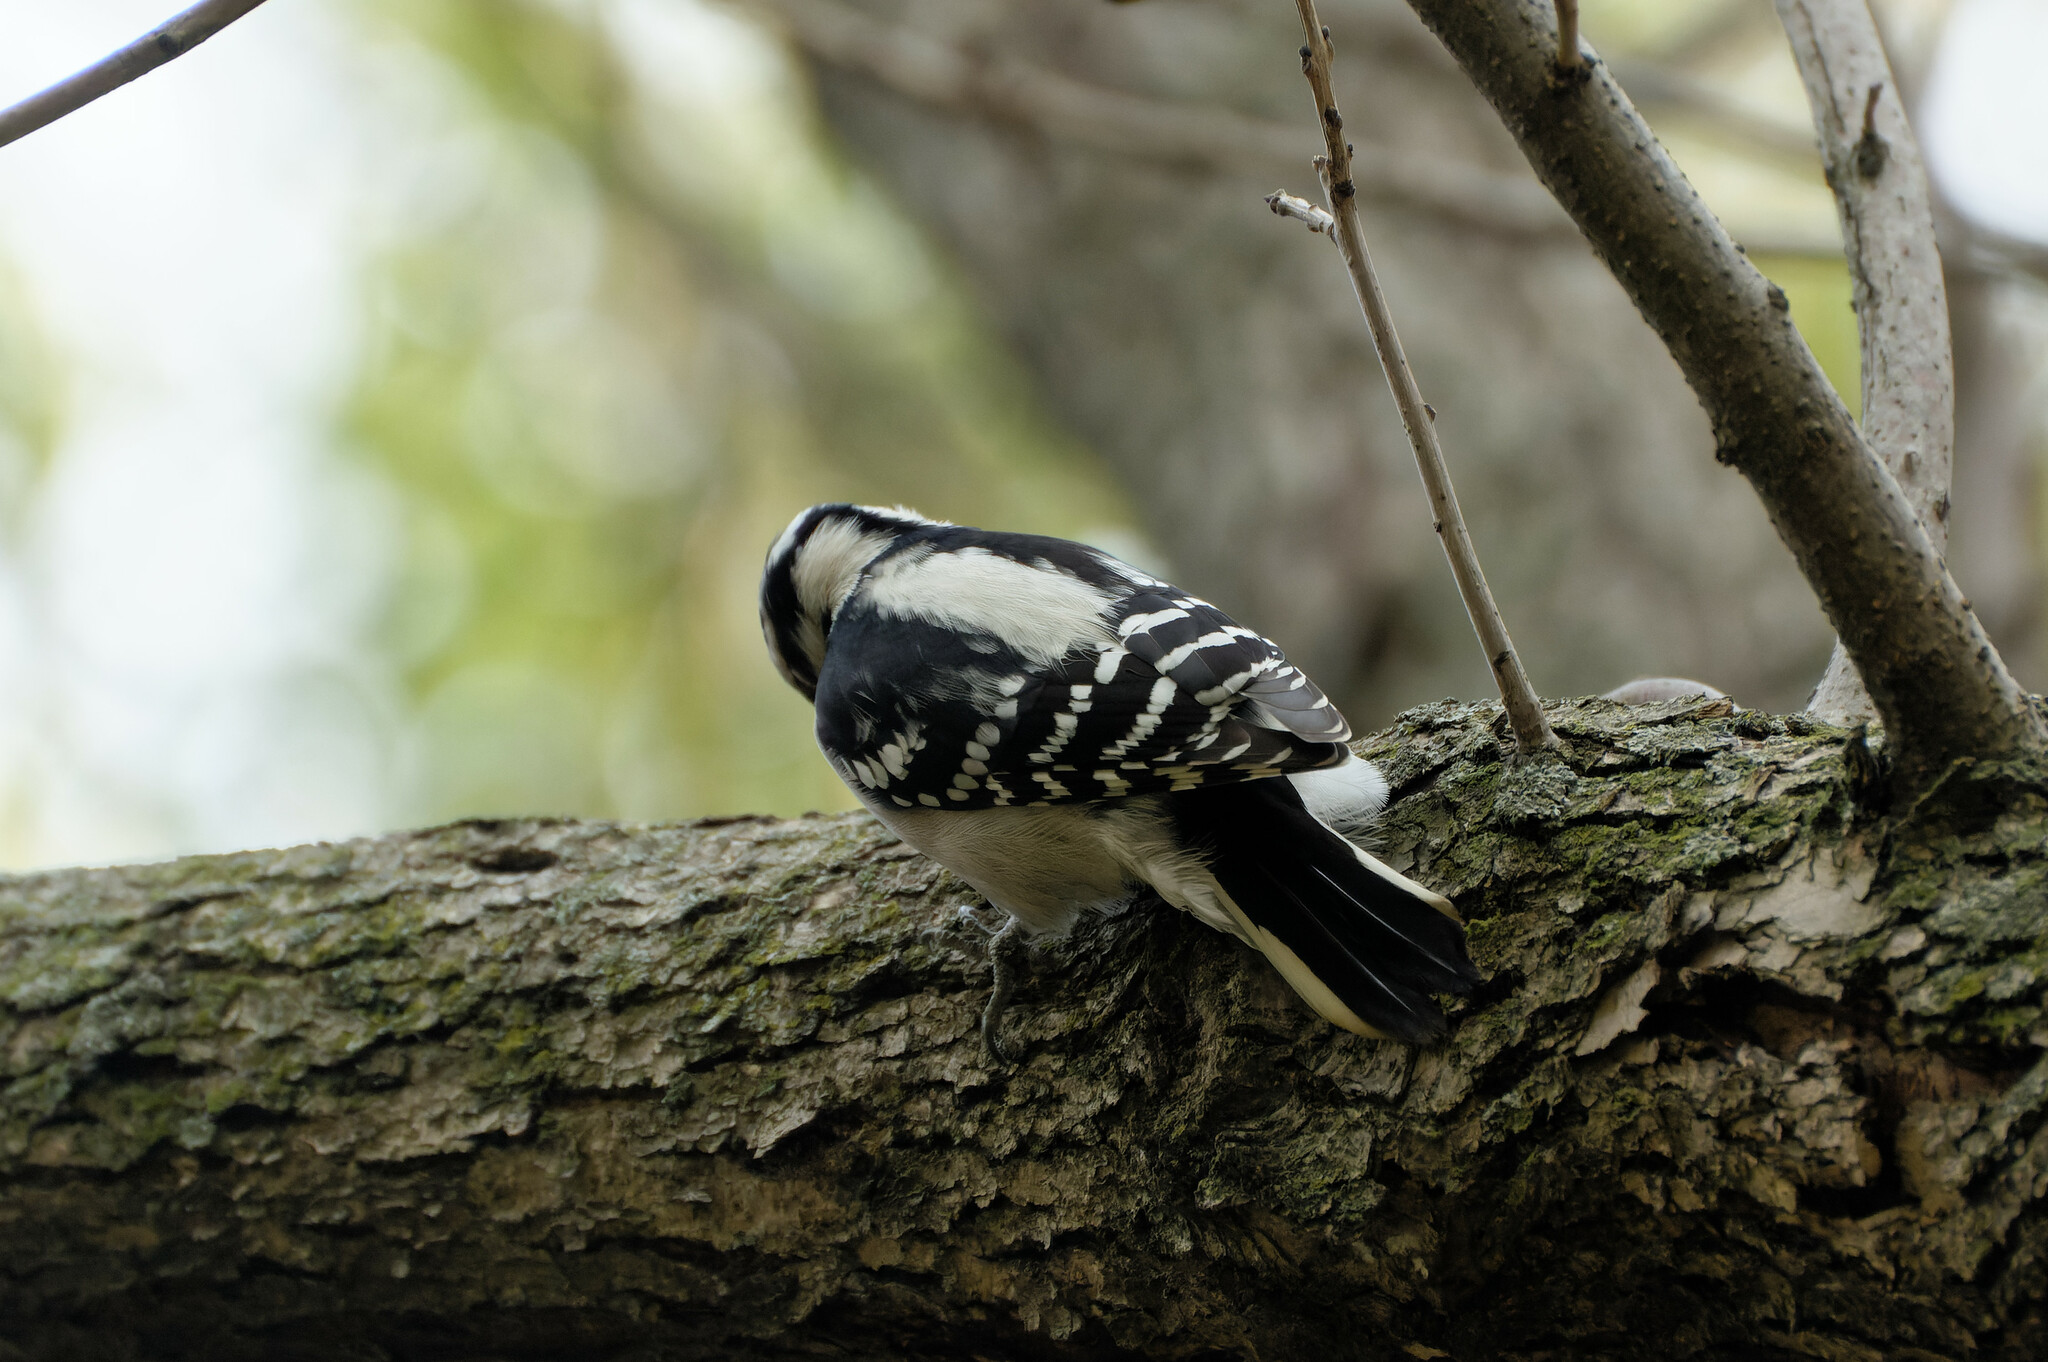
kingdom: Animalia
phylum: Chordata
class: Aves
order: Piciformes
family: Picidae
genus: Dryobates
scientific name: Dryobates pubescens
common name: Downy woodpecker
